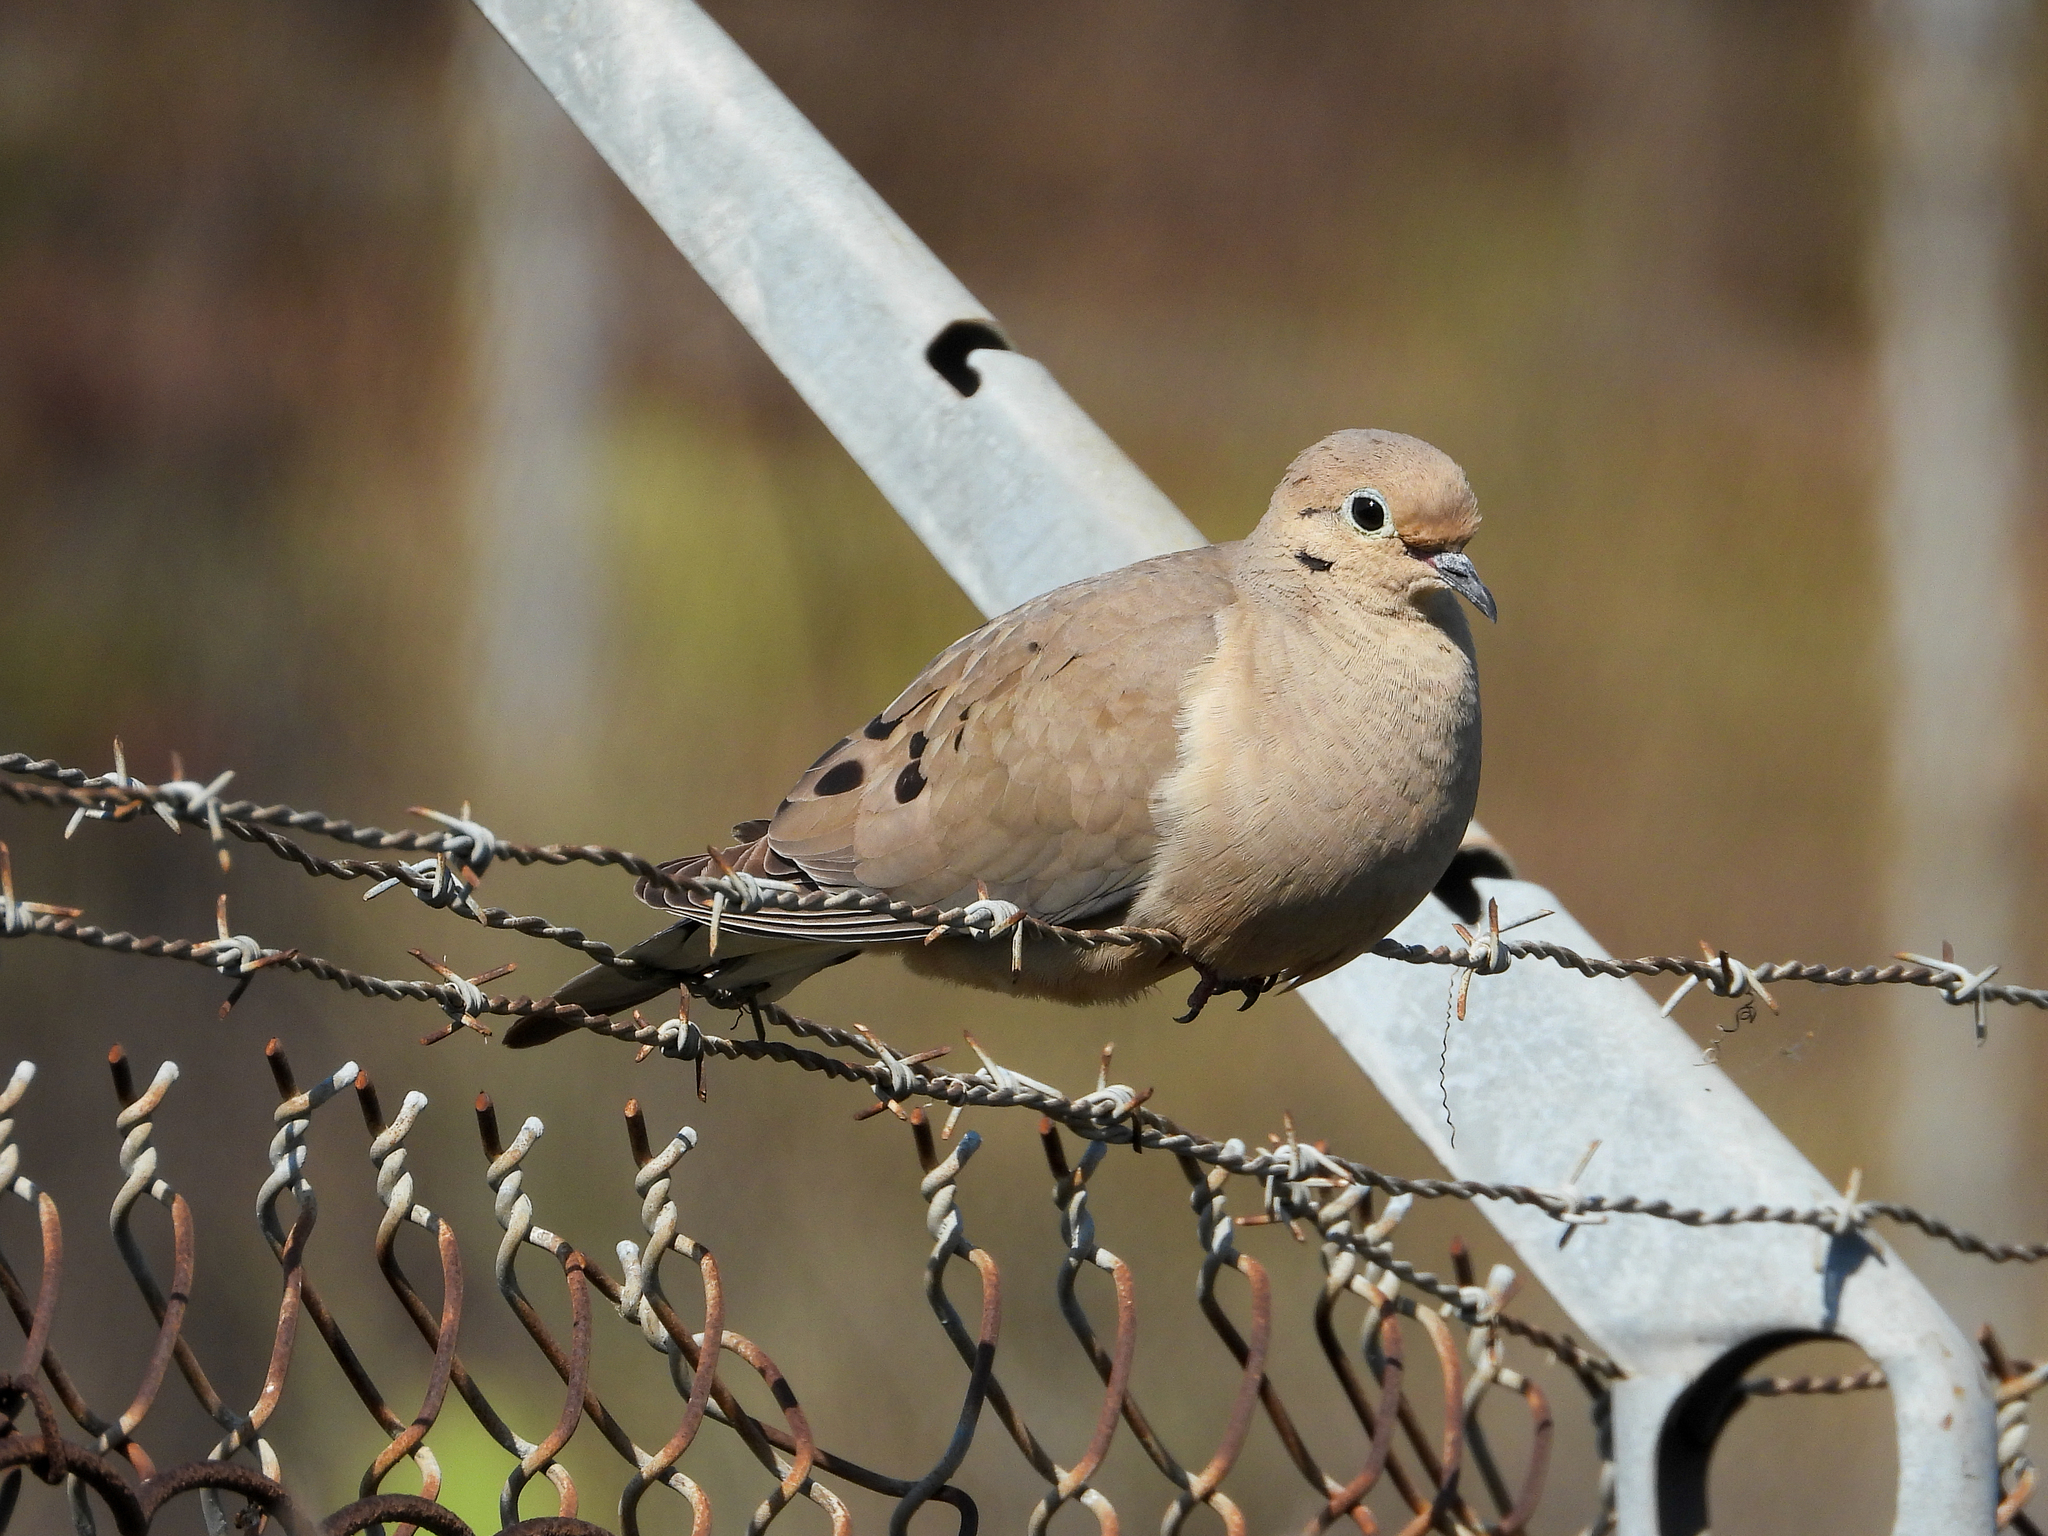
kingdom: Animalia
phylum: Chordata
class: Aves
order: Columbiformes
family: Columbidae
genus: Zenaida
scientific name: Zenaida macroura
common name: Mourning dove
